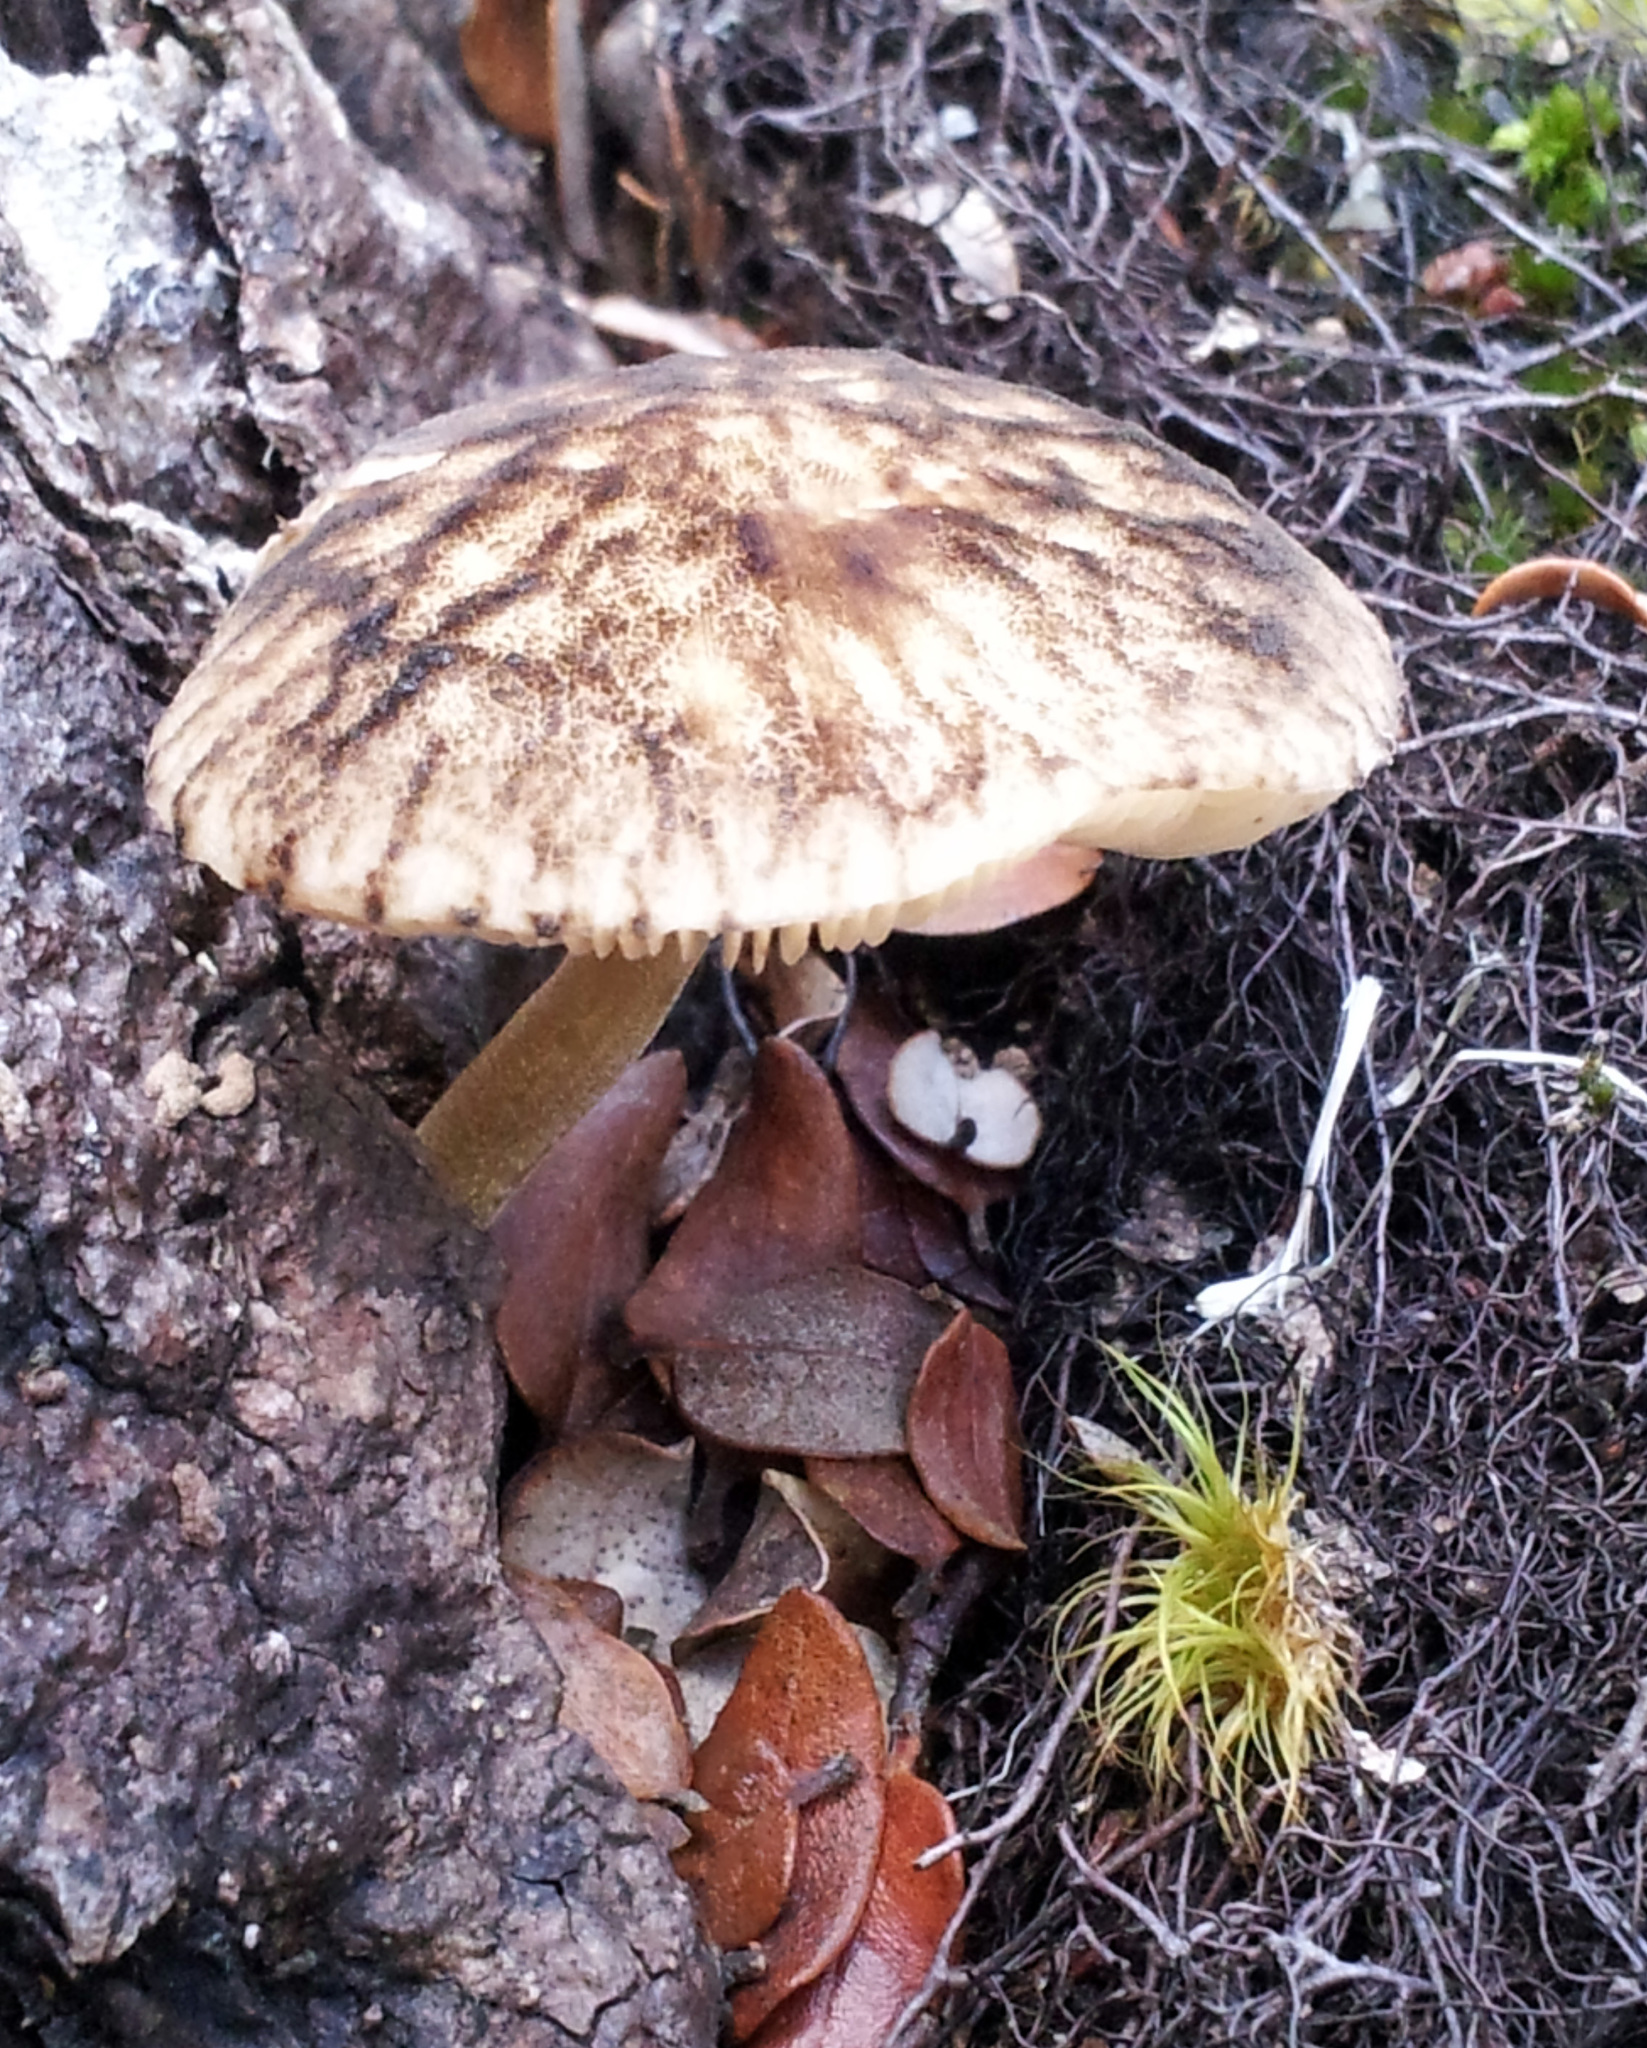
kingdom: Fungi
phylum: Basidiomycota
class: Agaricomycetes
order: Agaricales
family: Pluteaceae
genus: Pluteus
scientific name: Pluteus readiarum
